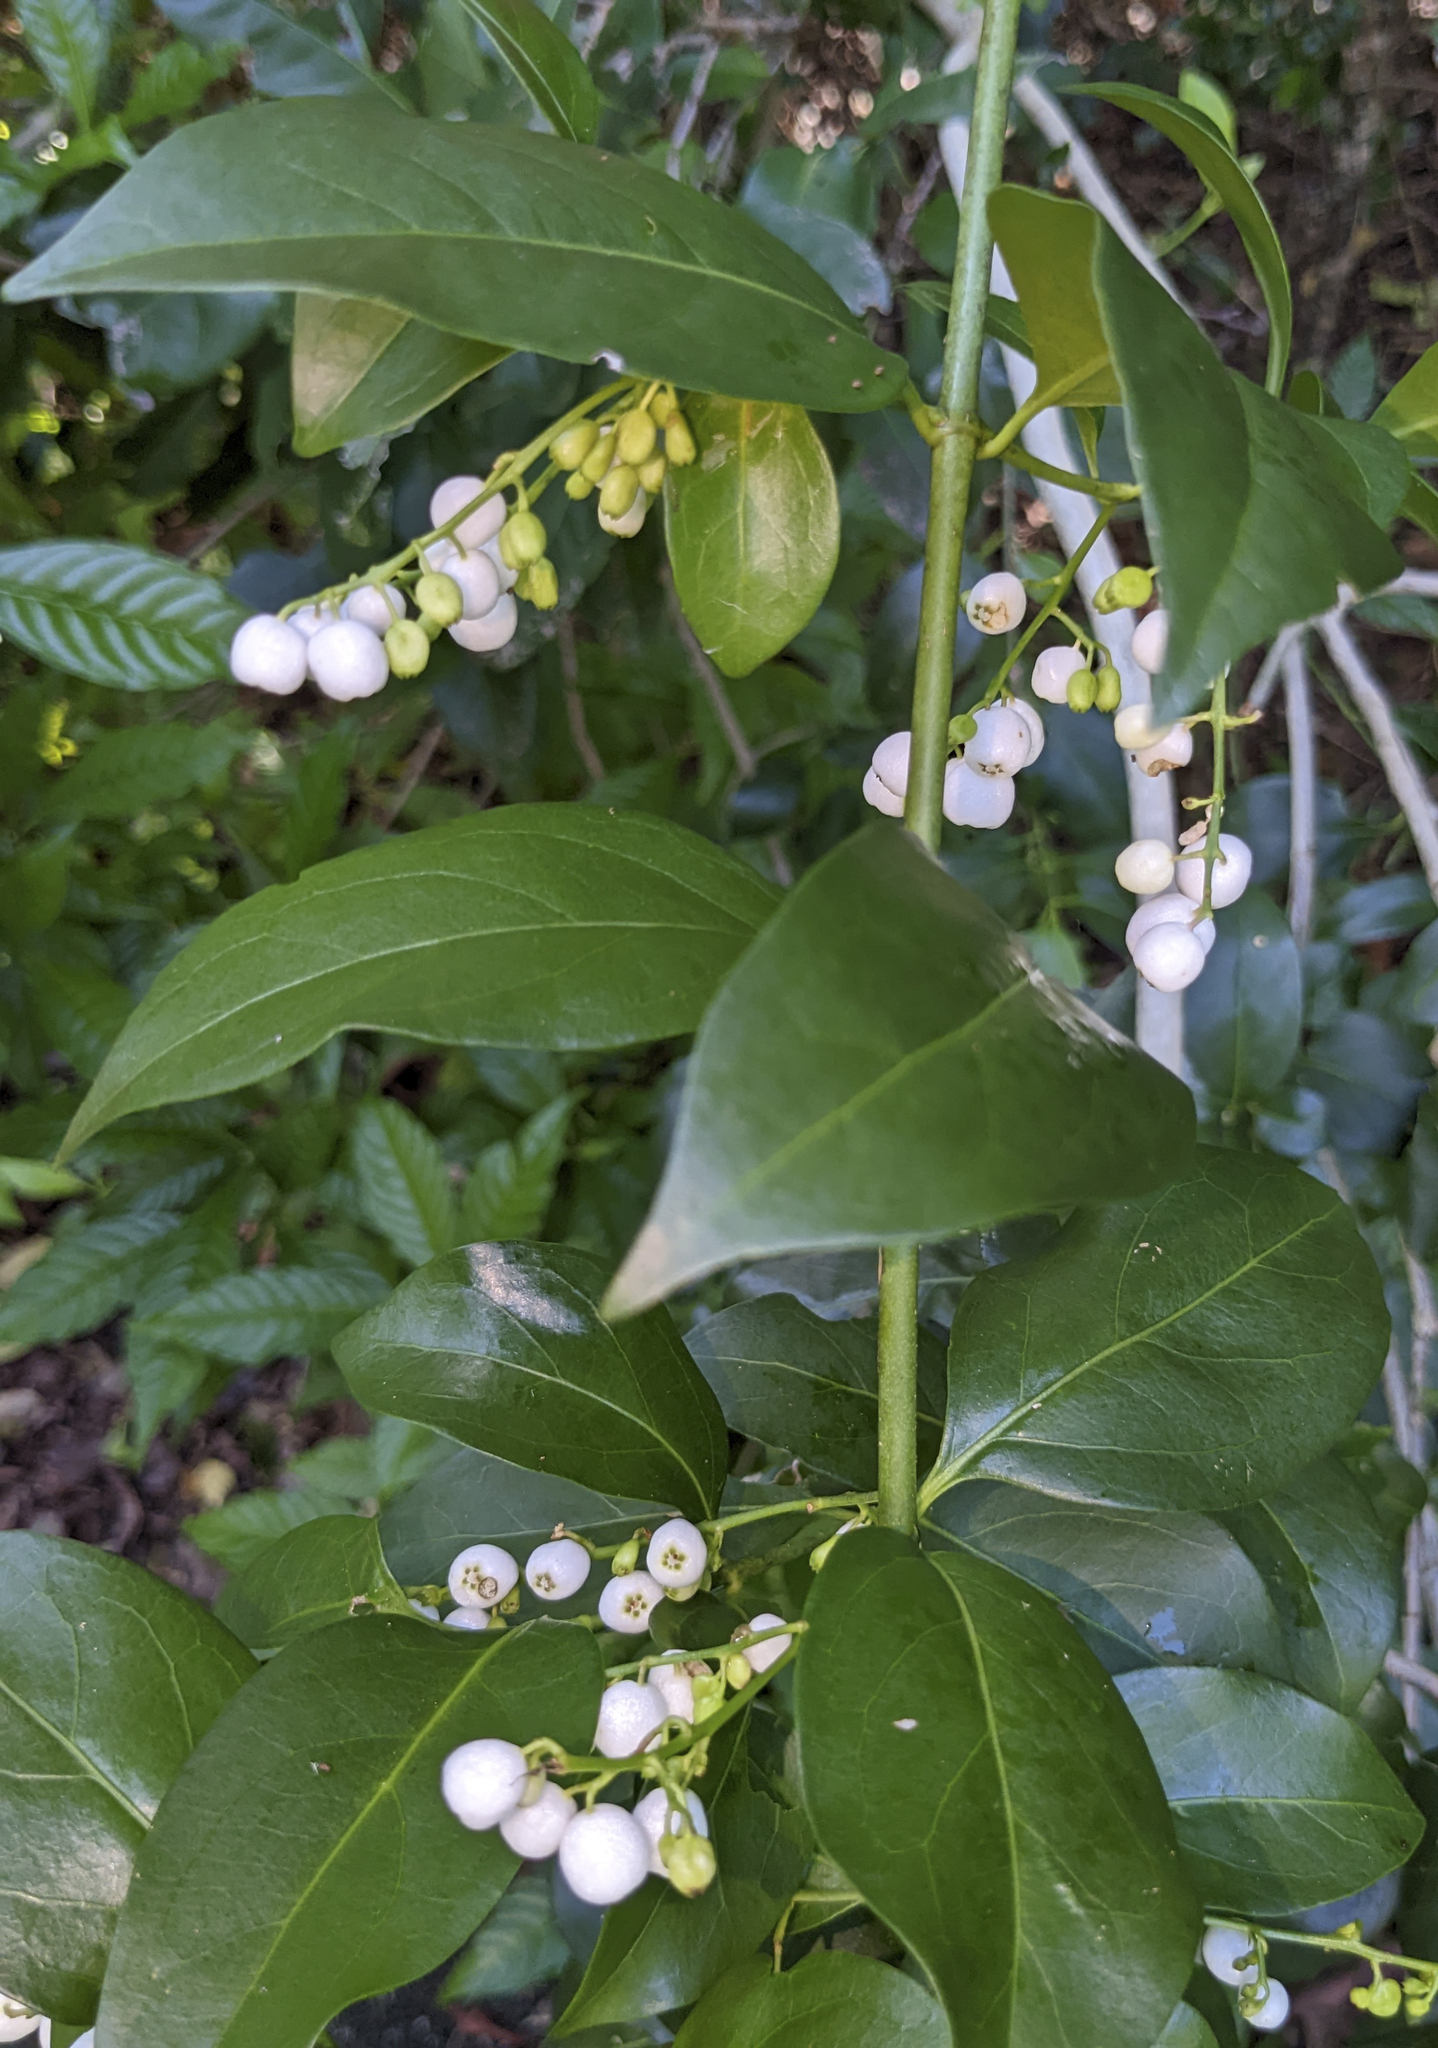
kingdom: Plantae
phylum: Tracheophyta
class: Magnoliopsida
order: Gentianales
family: Rubiaceae
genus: Chiococca
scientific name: Chiococca alba
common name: Snowberry
